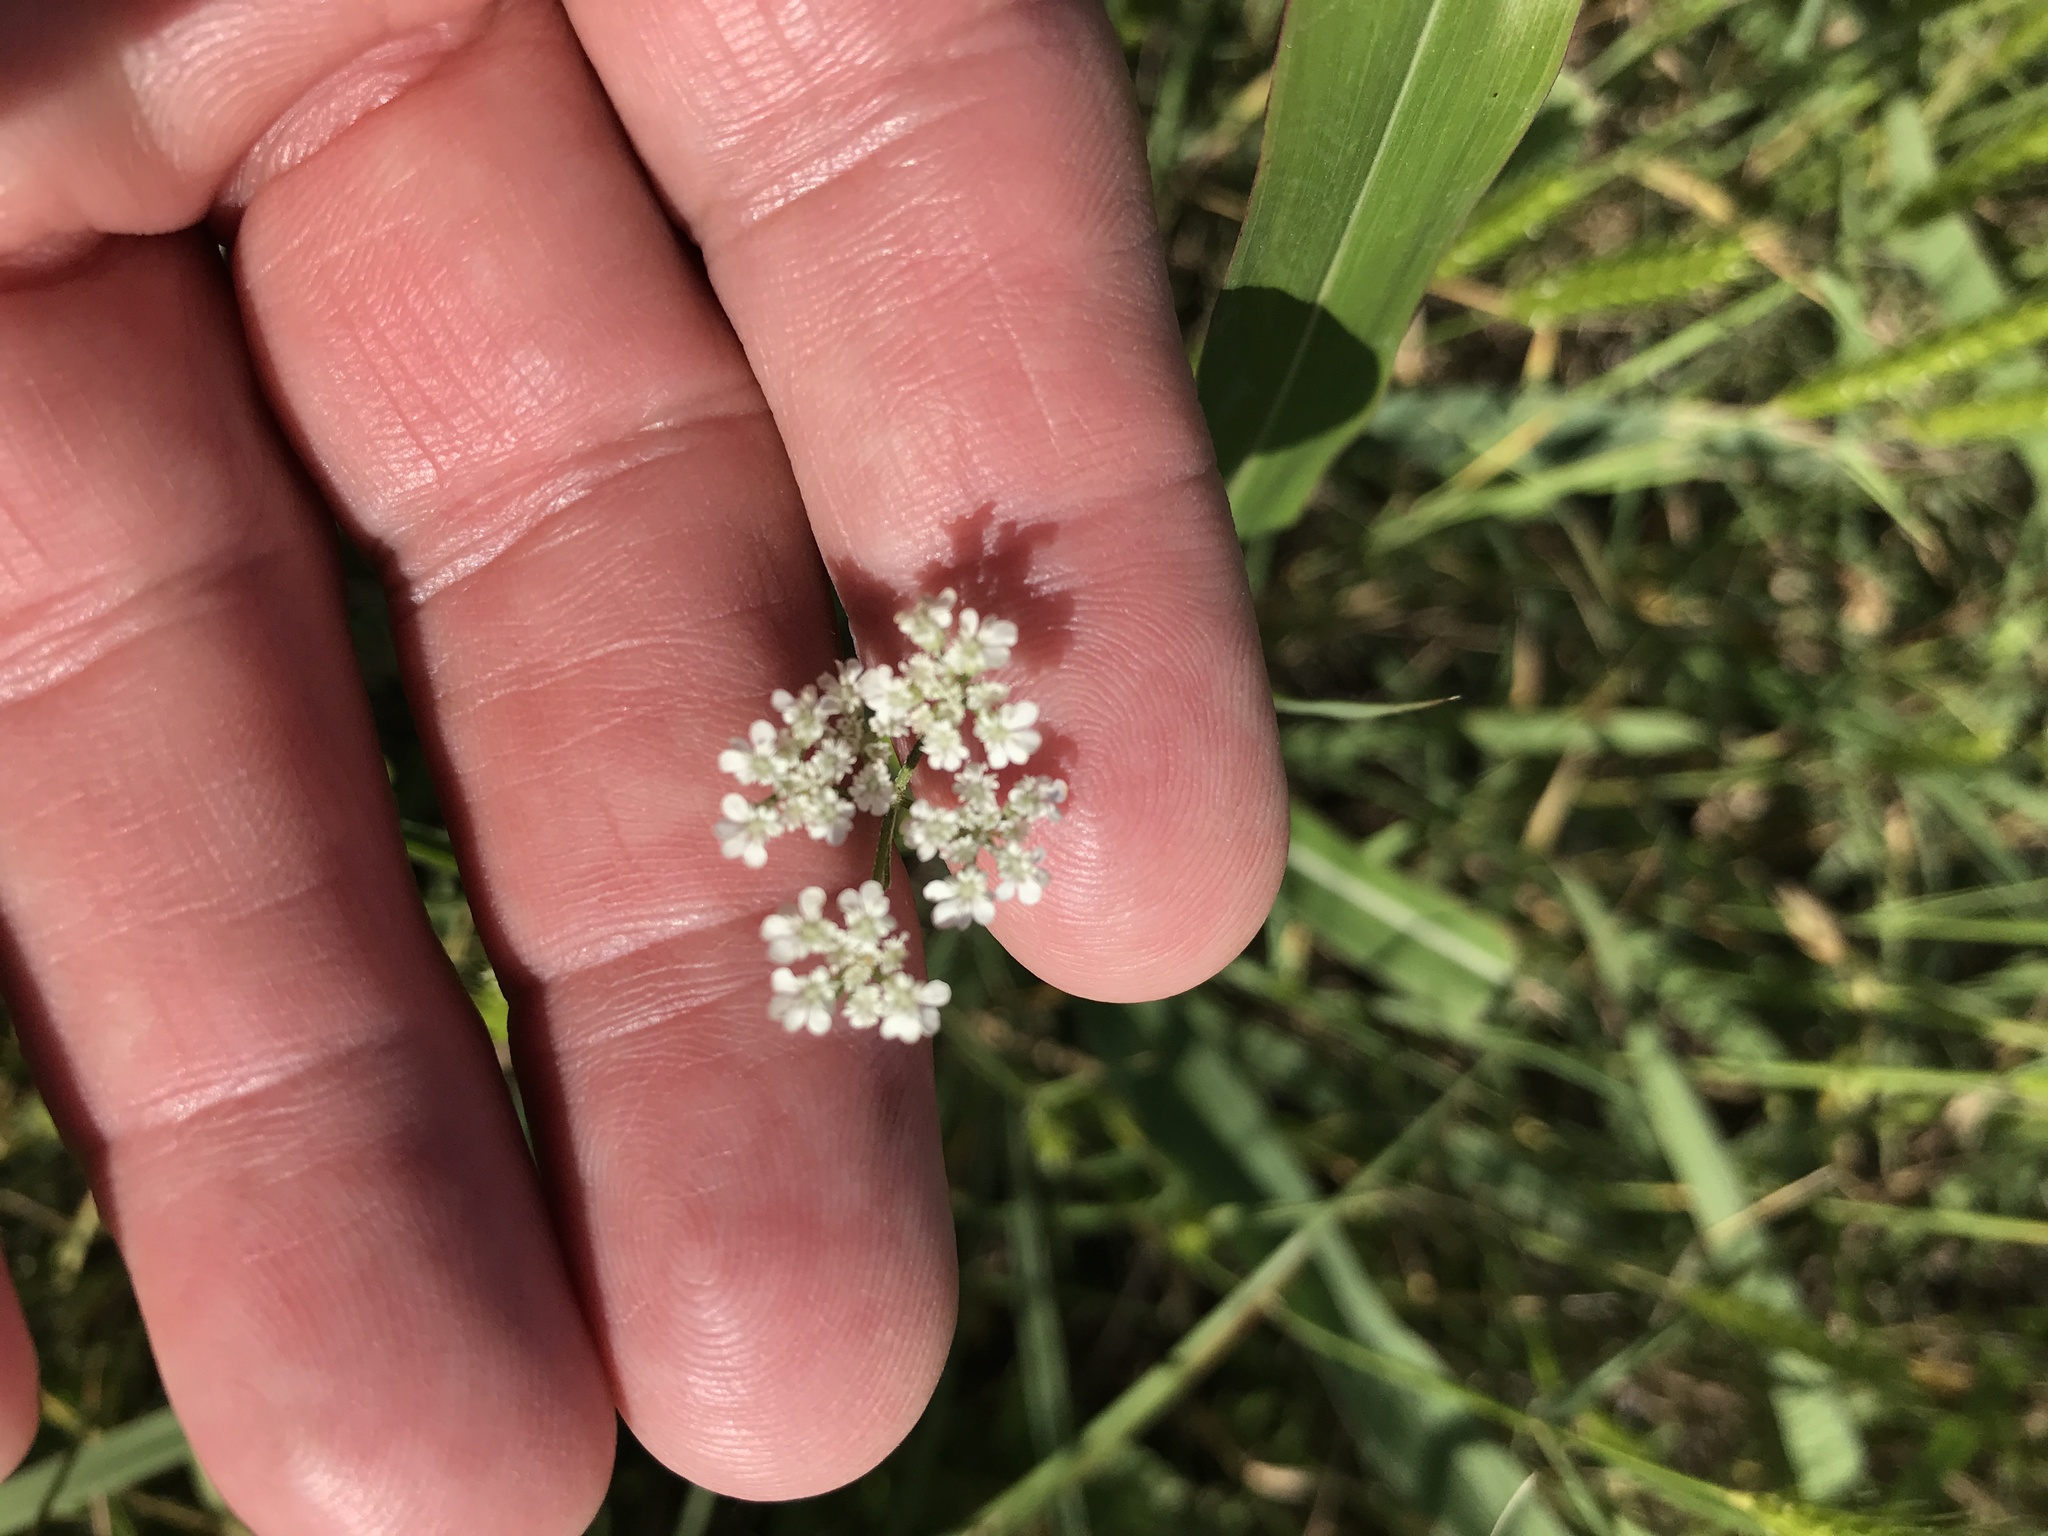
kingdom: Plantae
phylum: Tracheophyta
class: Magnoliopsida
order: Apiales
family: Apiaceae
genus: Torilis
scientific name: Torilis arvensis
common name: Spreading hedge-parsley
